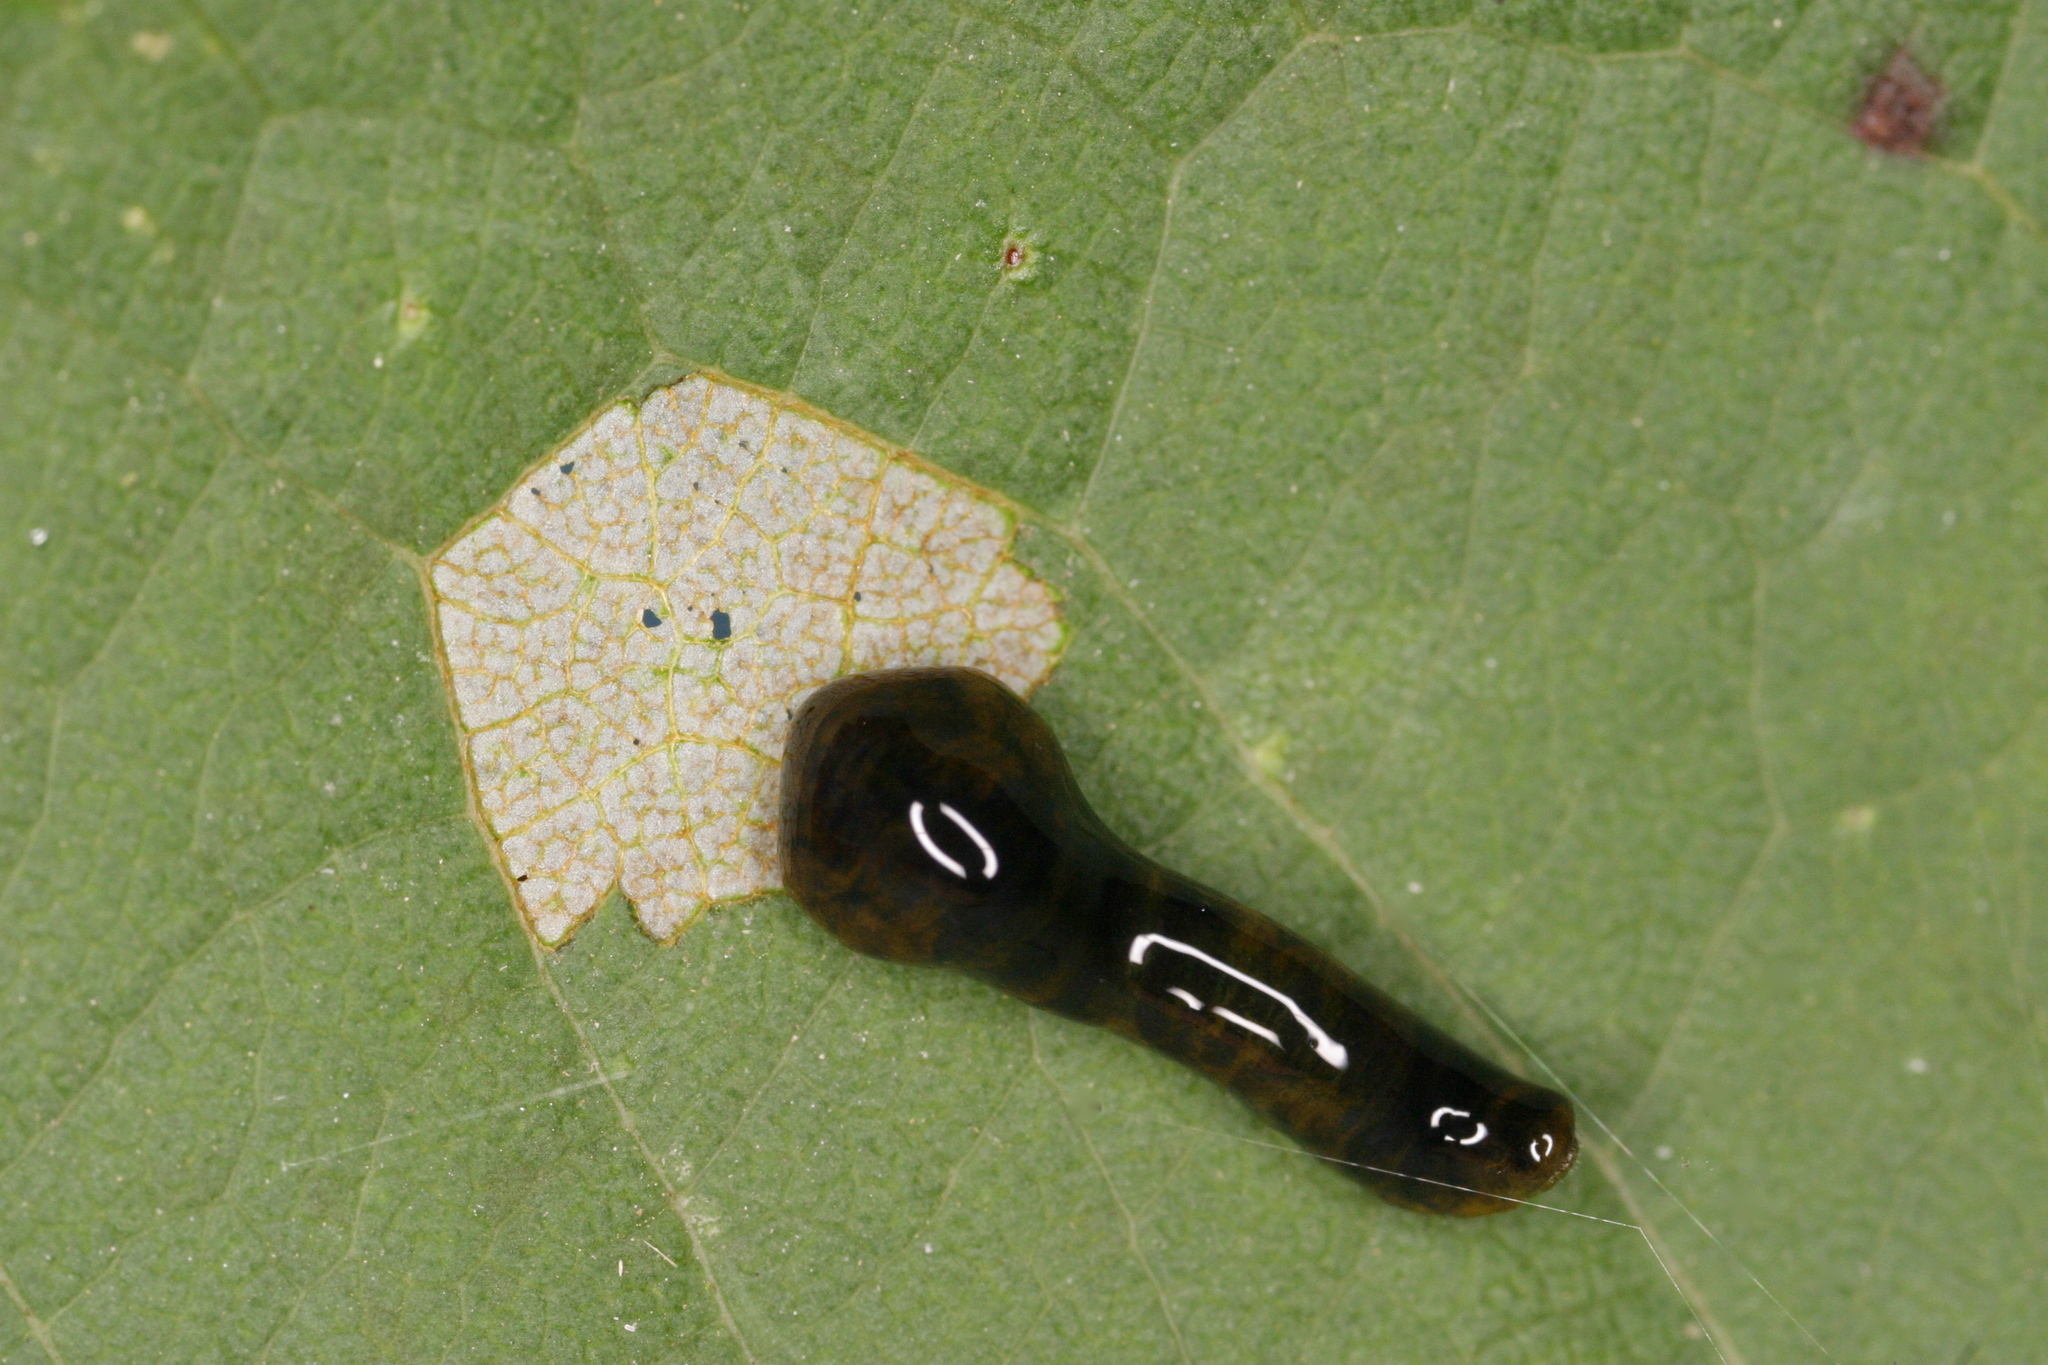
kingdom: Animalia
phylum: Arthropoda
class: Insecta
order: Hymenoptera
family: Tenthredinidae
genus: Caliroa
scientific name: Caliroa cerasi
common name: Pear sawfly
